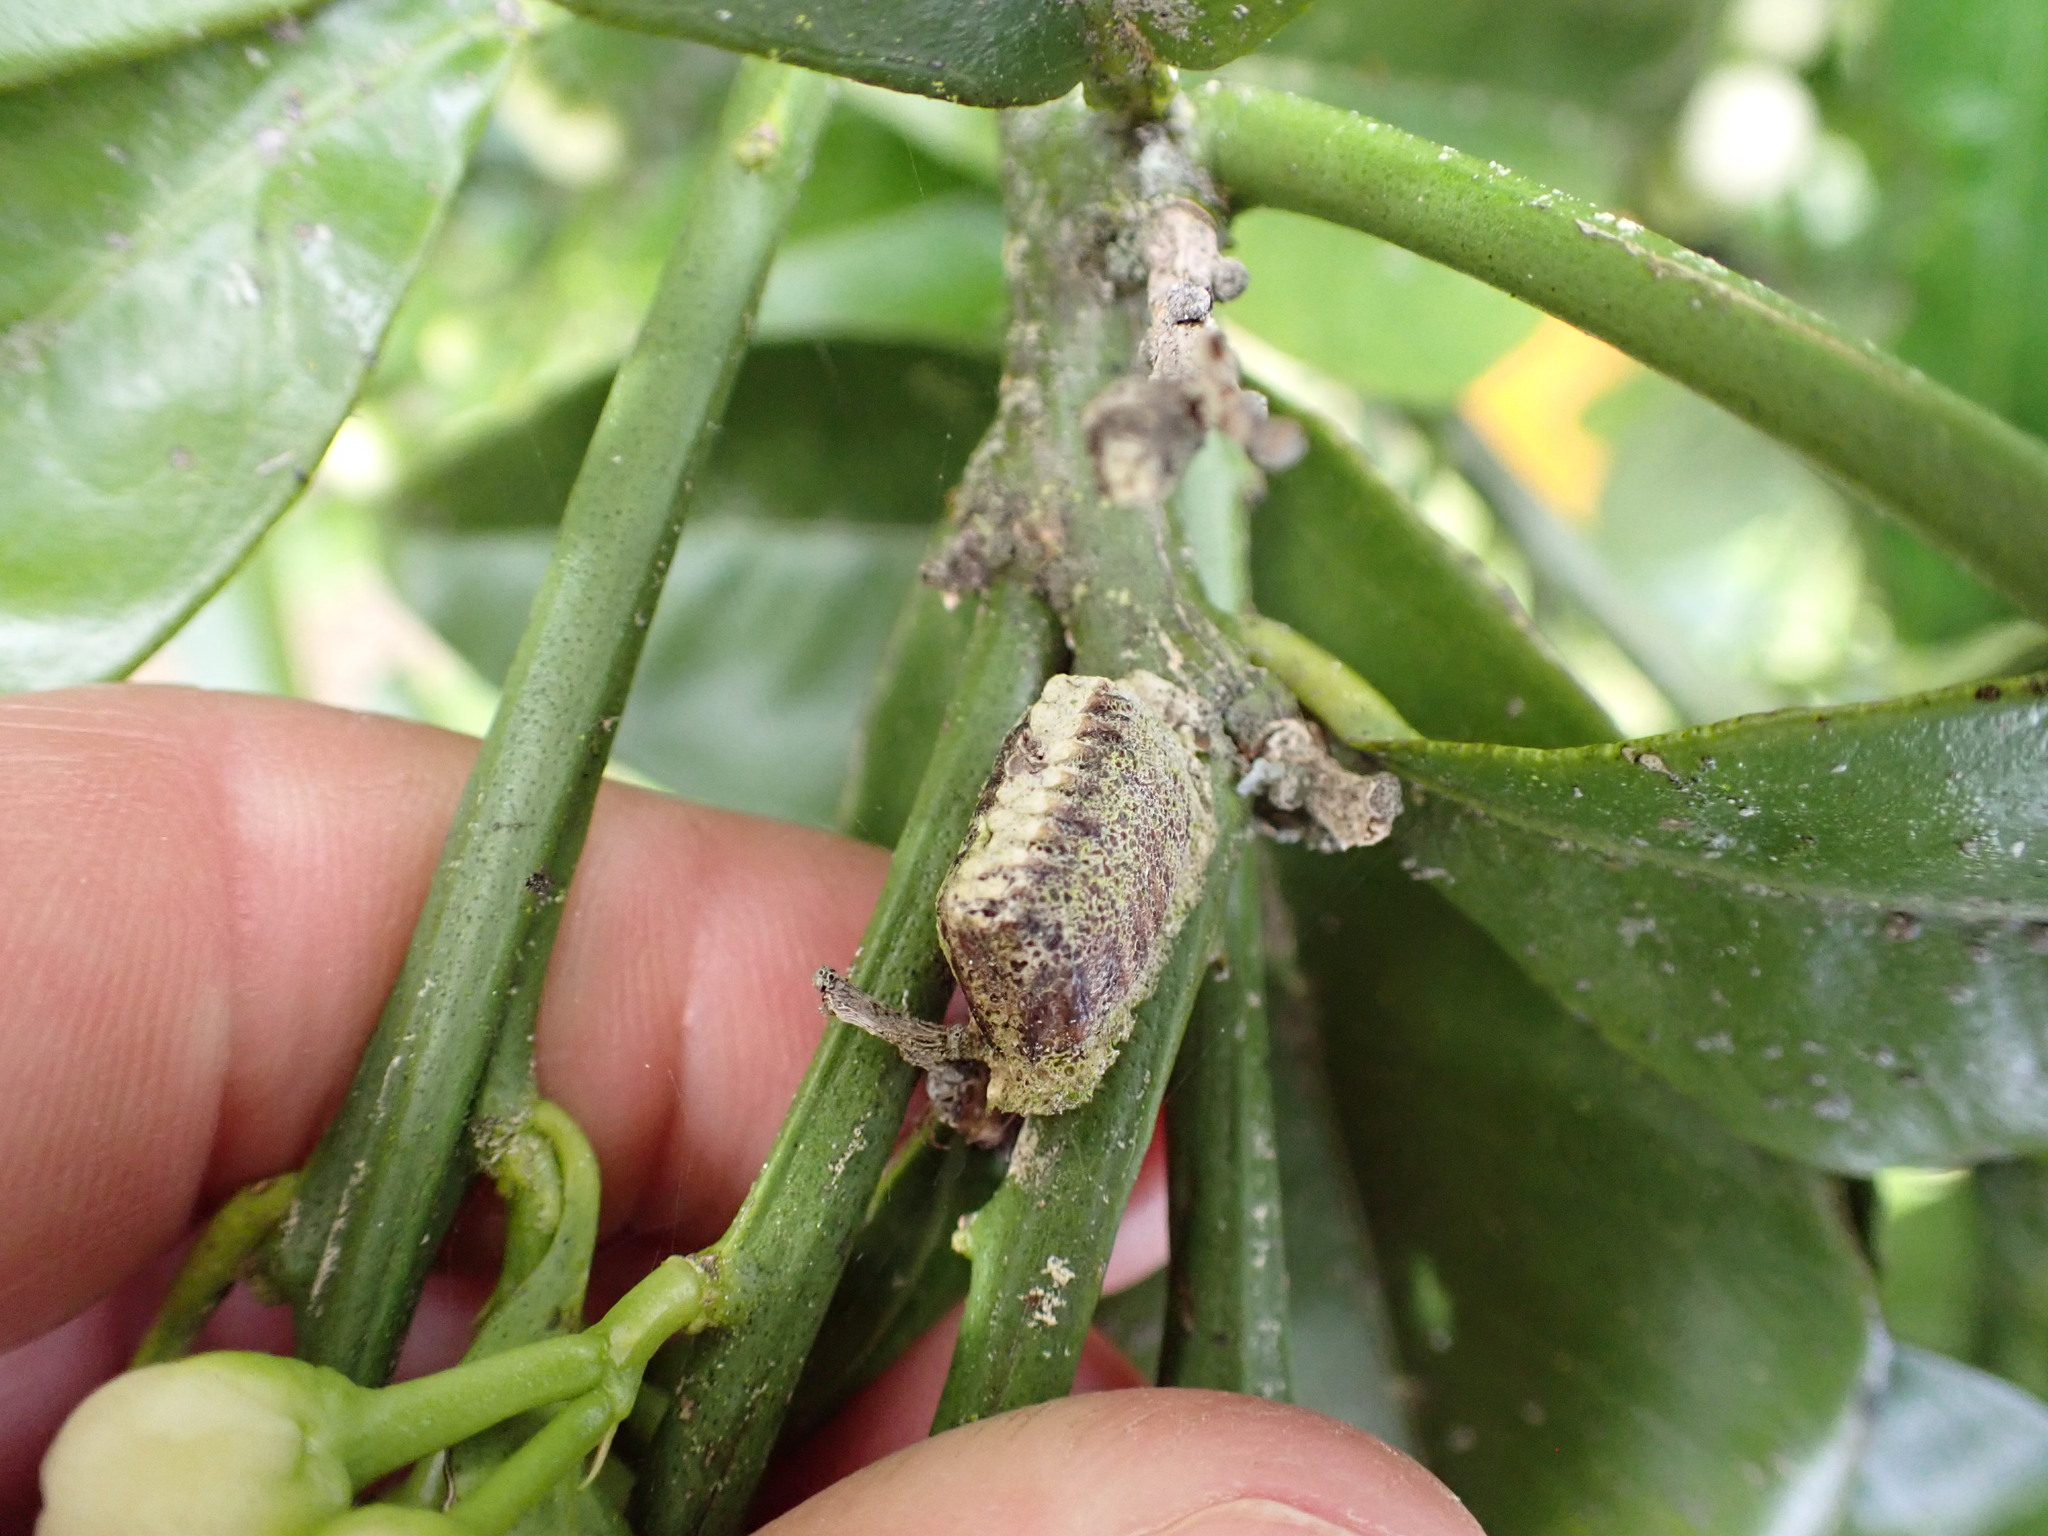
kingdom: Animalia
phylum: Arthropoda
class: Insecta
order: Mantodea
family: Mantidae
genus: Orthodera
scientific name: Orthodera novaezealandiae
